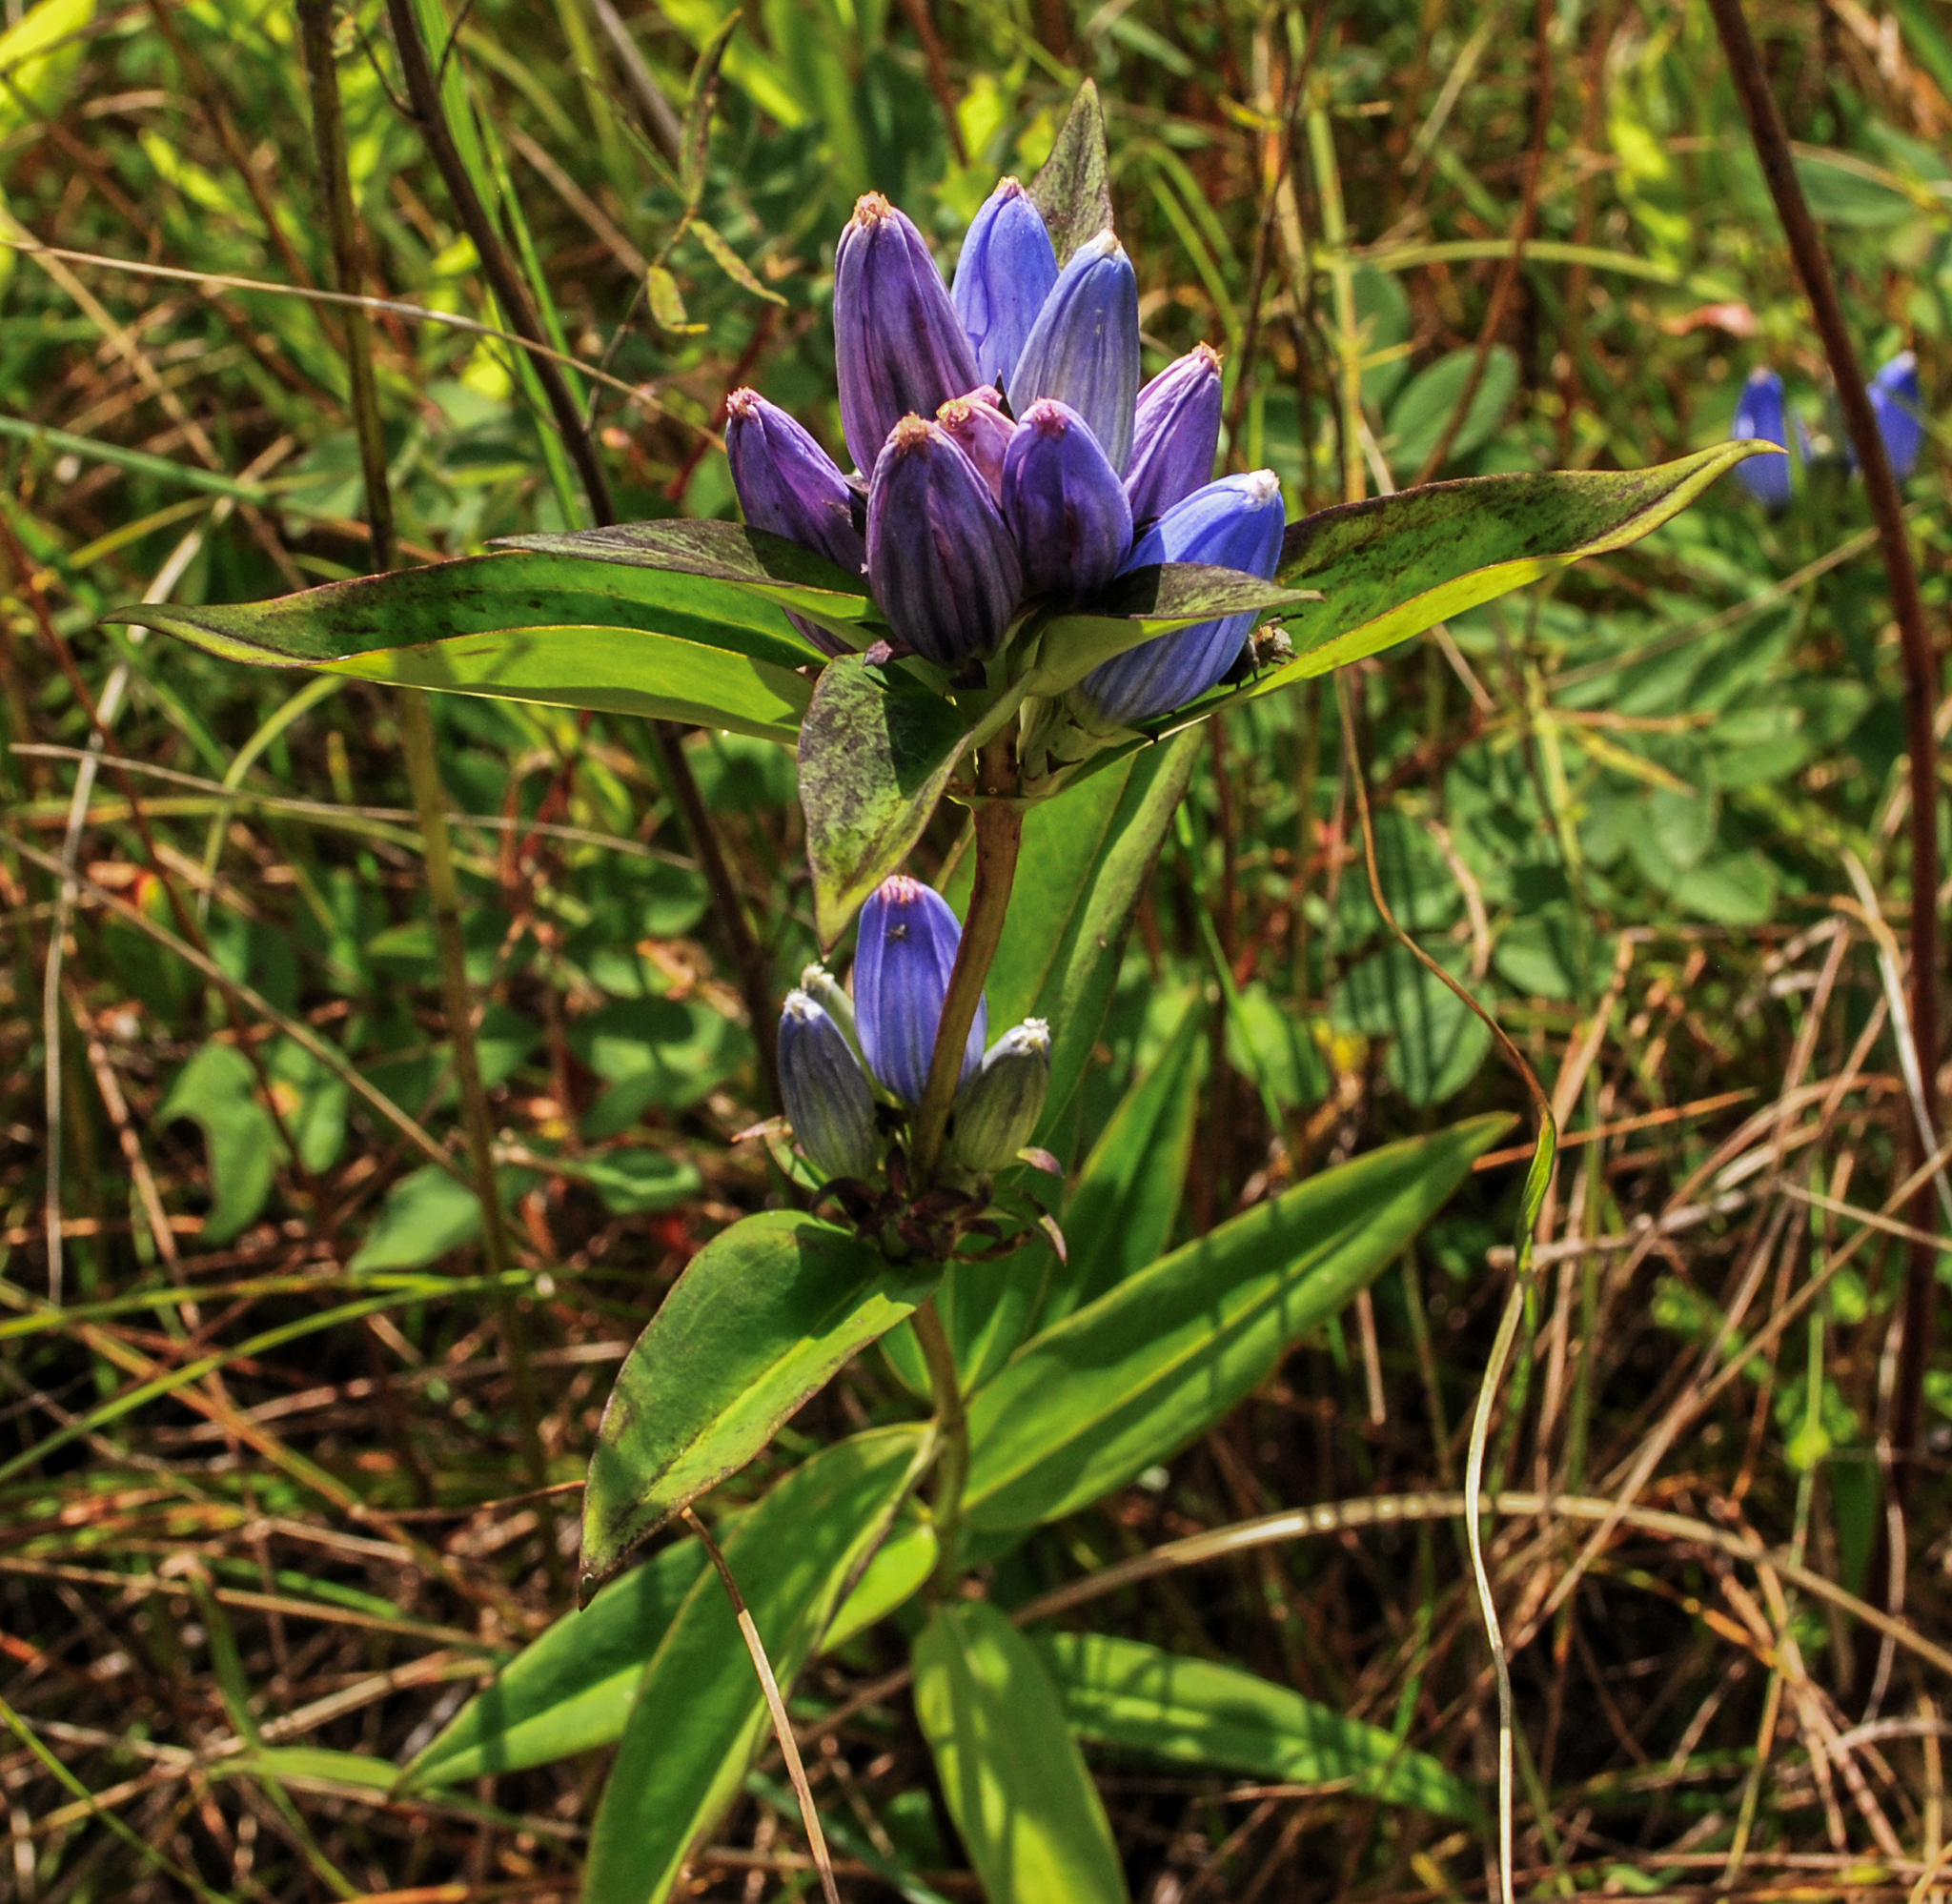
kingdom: Plantae
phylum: Tracheophyta
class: Magnoliopsida
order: Gentianales
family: Gentianaceae
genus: Gentiana
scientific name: Gentiana andrewsii
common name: Bottle gentian
